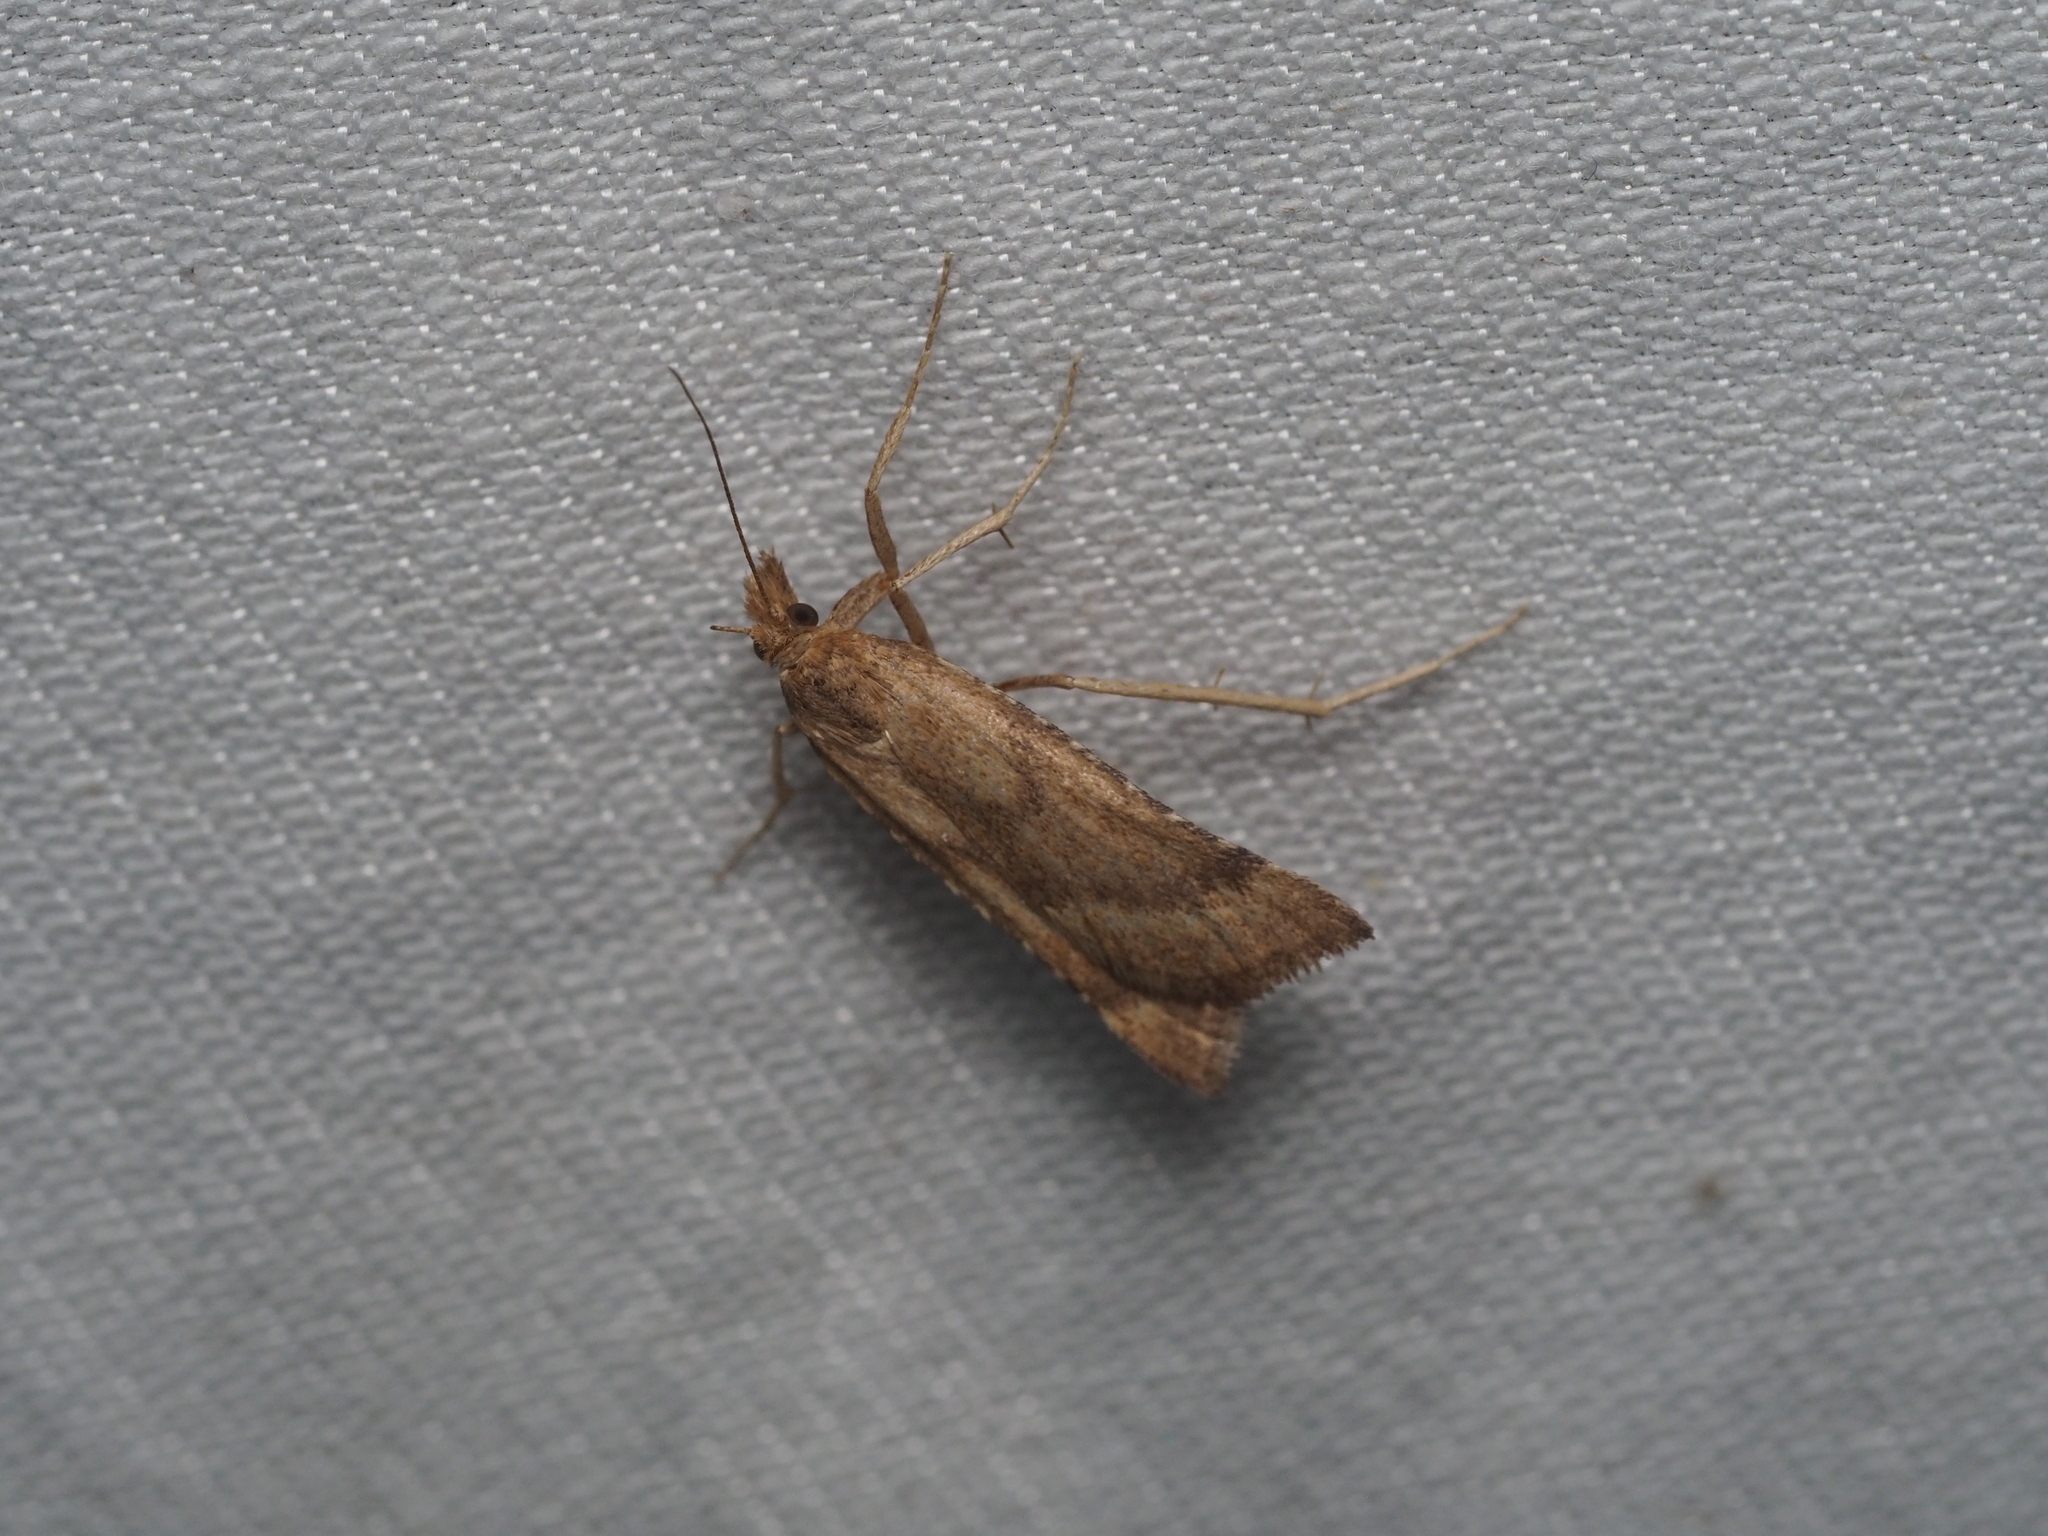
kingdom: Animalia
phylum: Arthropoda
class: Insecta
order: Lepidoptera
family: Pyralidae
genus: Synaphe
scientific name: Synaphe punctalis
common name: Long-legged tabby
